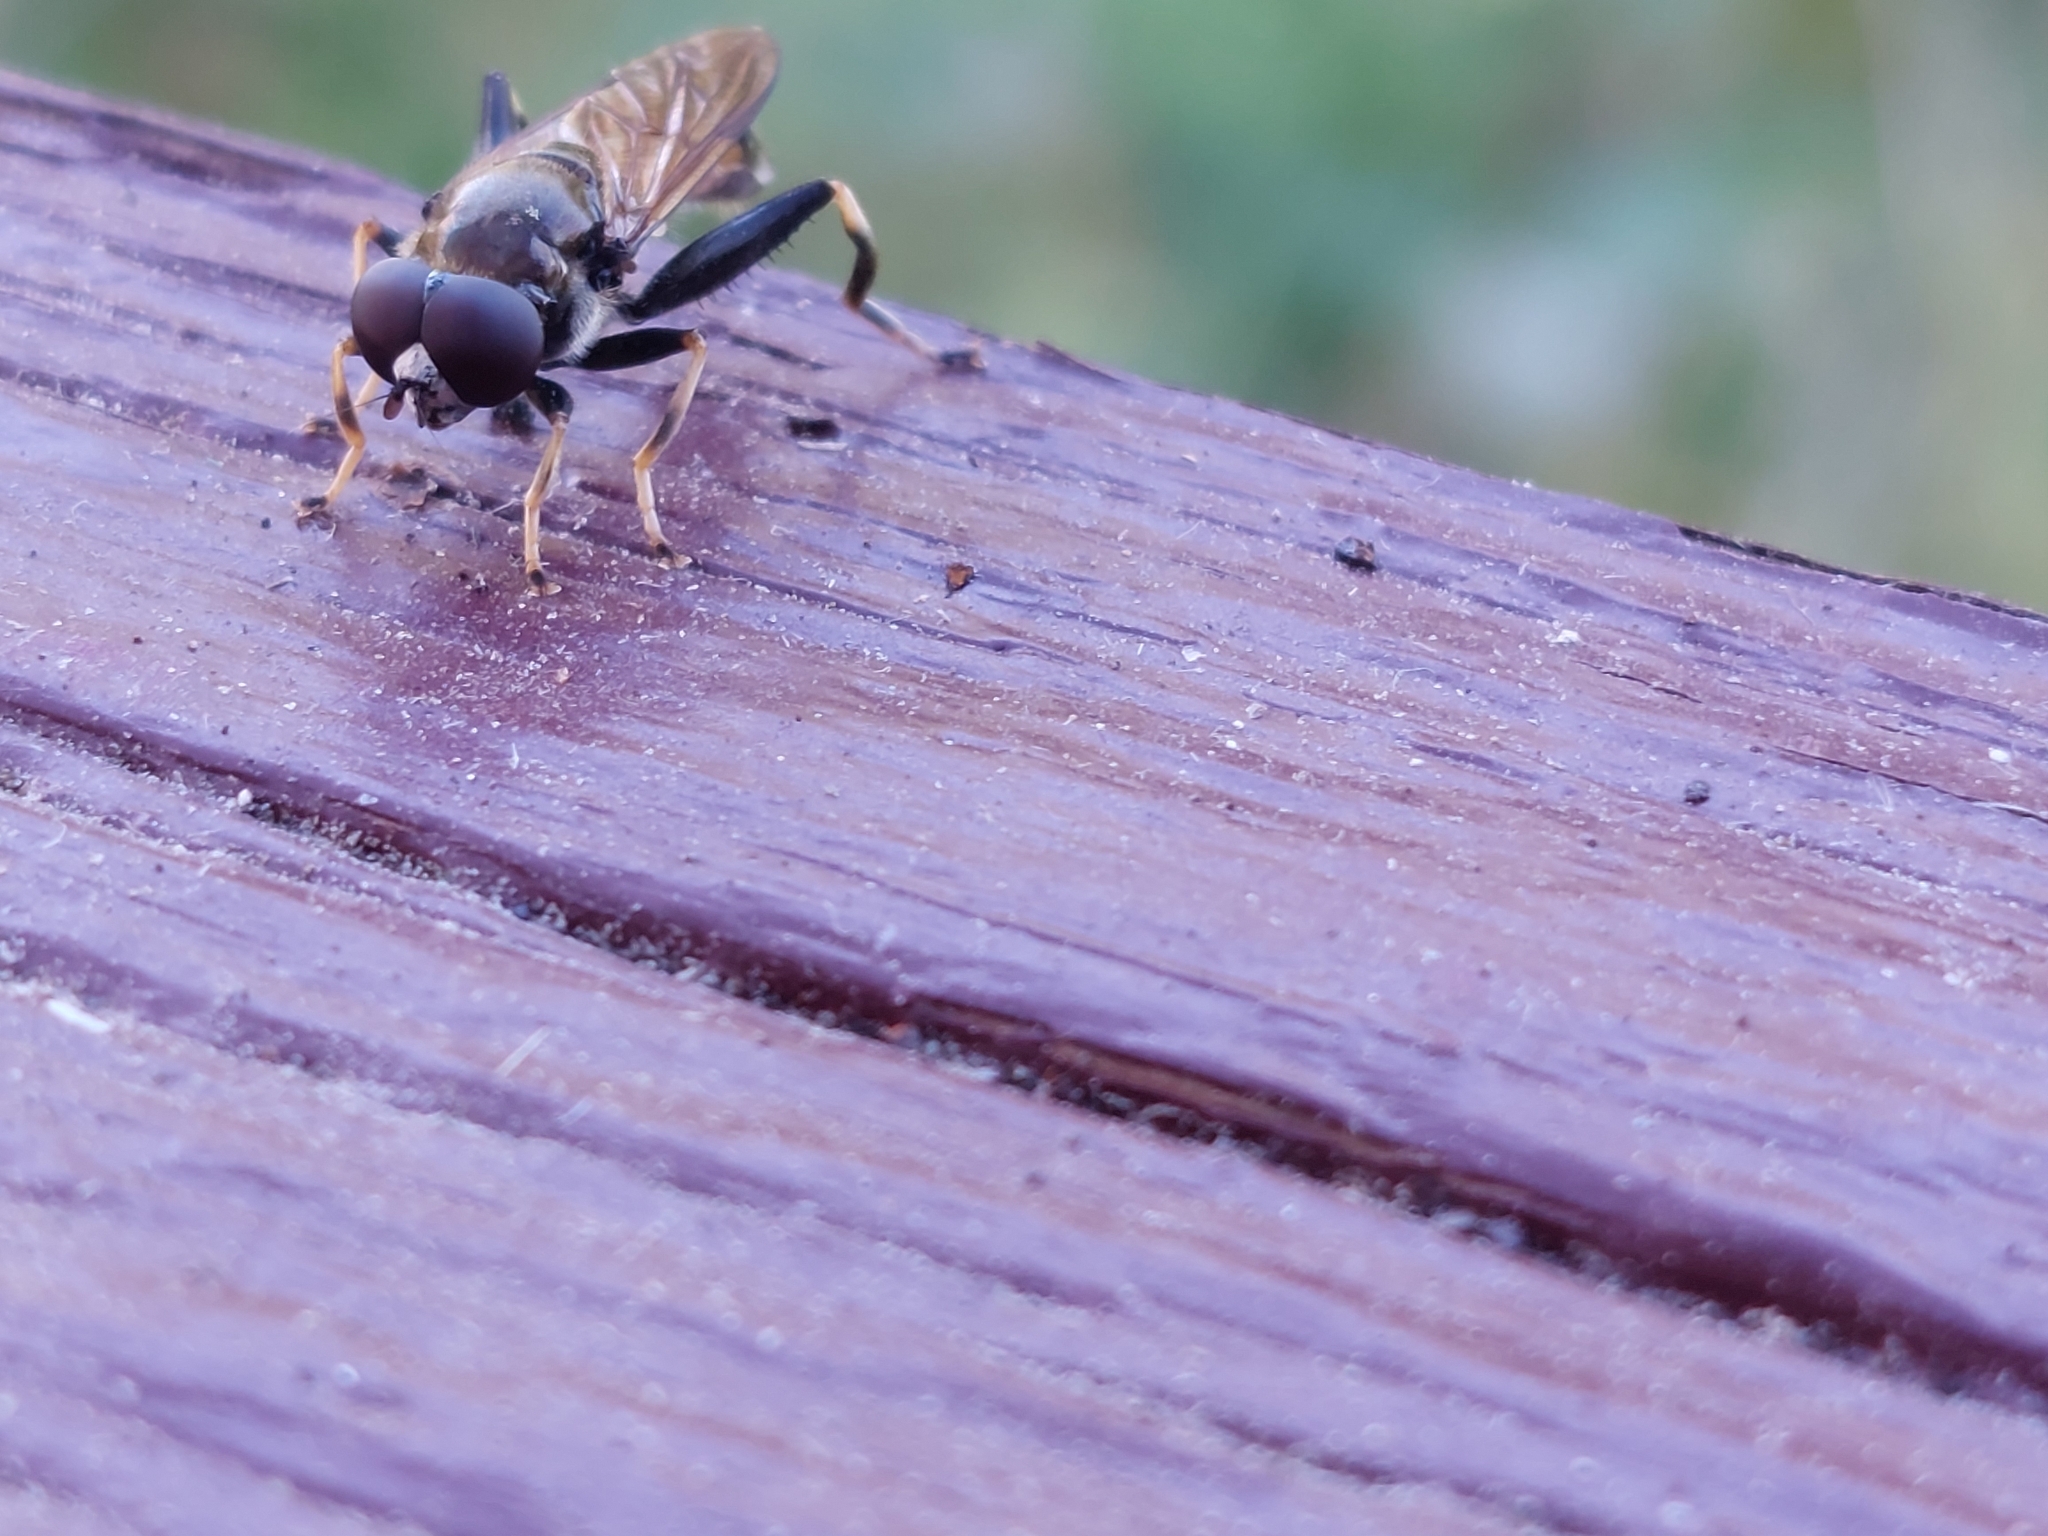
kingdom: Animalia
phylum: Arthropoda
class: Insecta
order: Diptera
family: Syrphidae
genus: Xylota
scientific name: Xylota segnis
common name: Brown-toed forest fly
